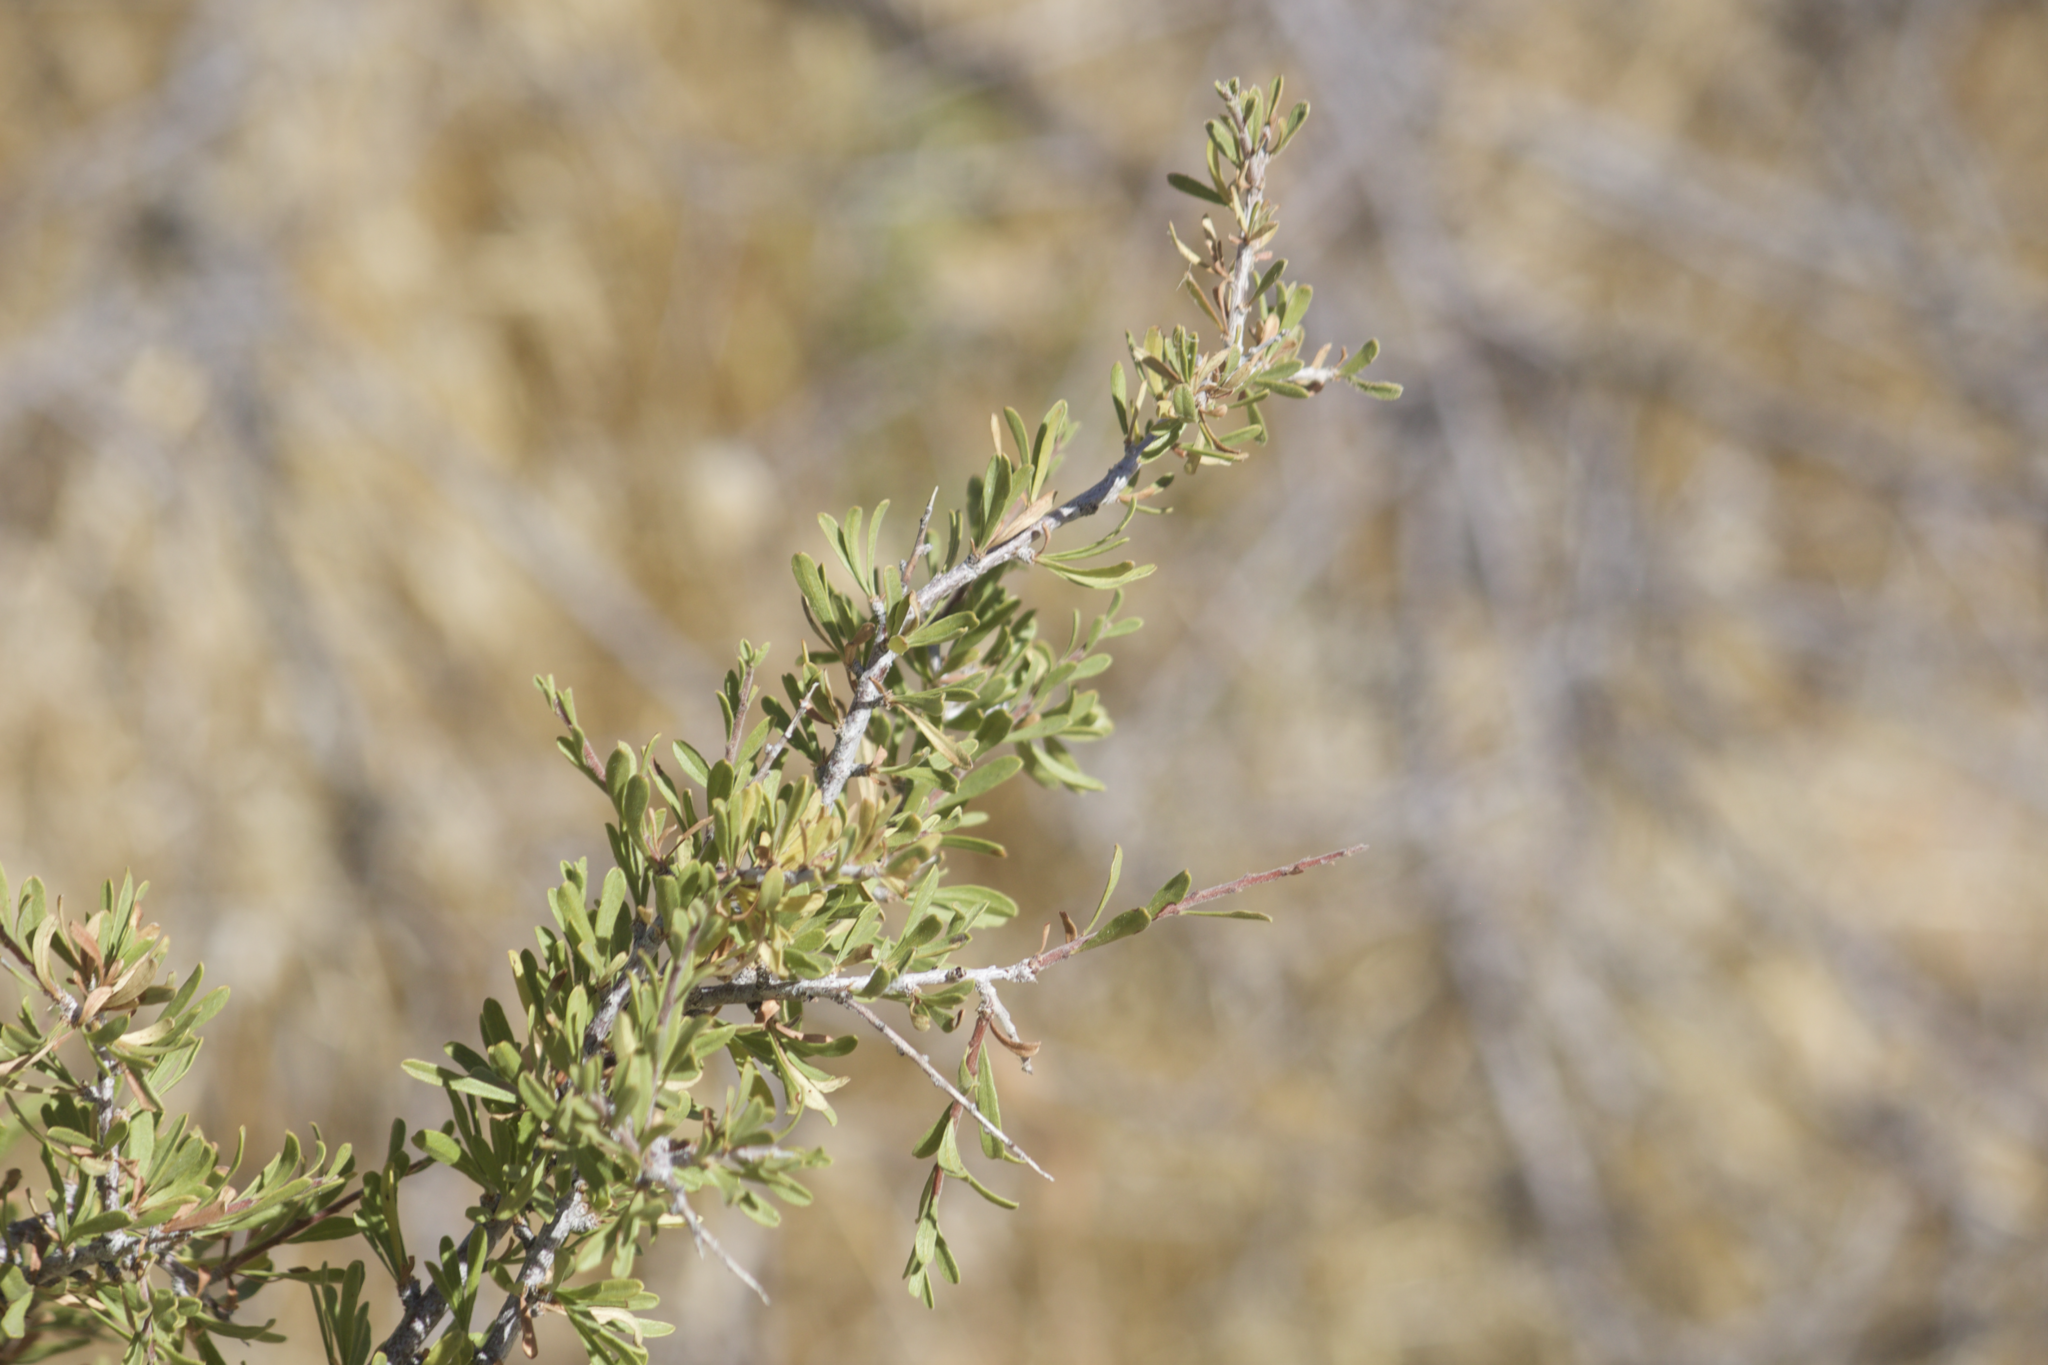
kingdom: Plantae
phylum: Tracheophyta
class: Magnoliopsida
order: Rosales
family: Rosaceae
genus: Prunus
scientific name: Prunus fasciculata
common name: Desert almond
